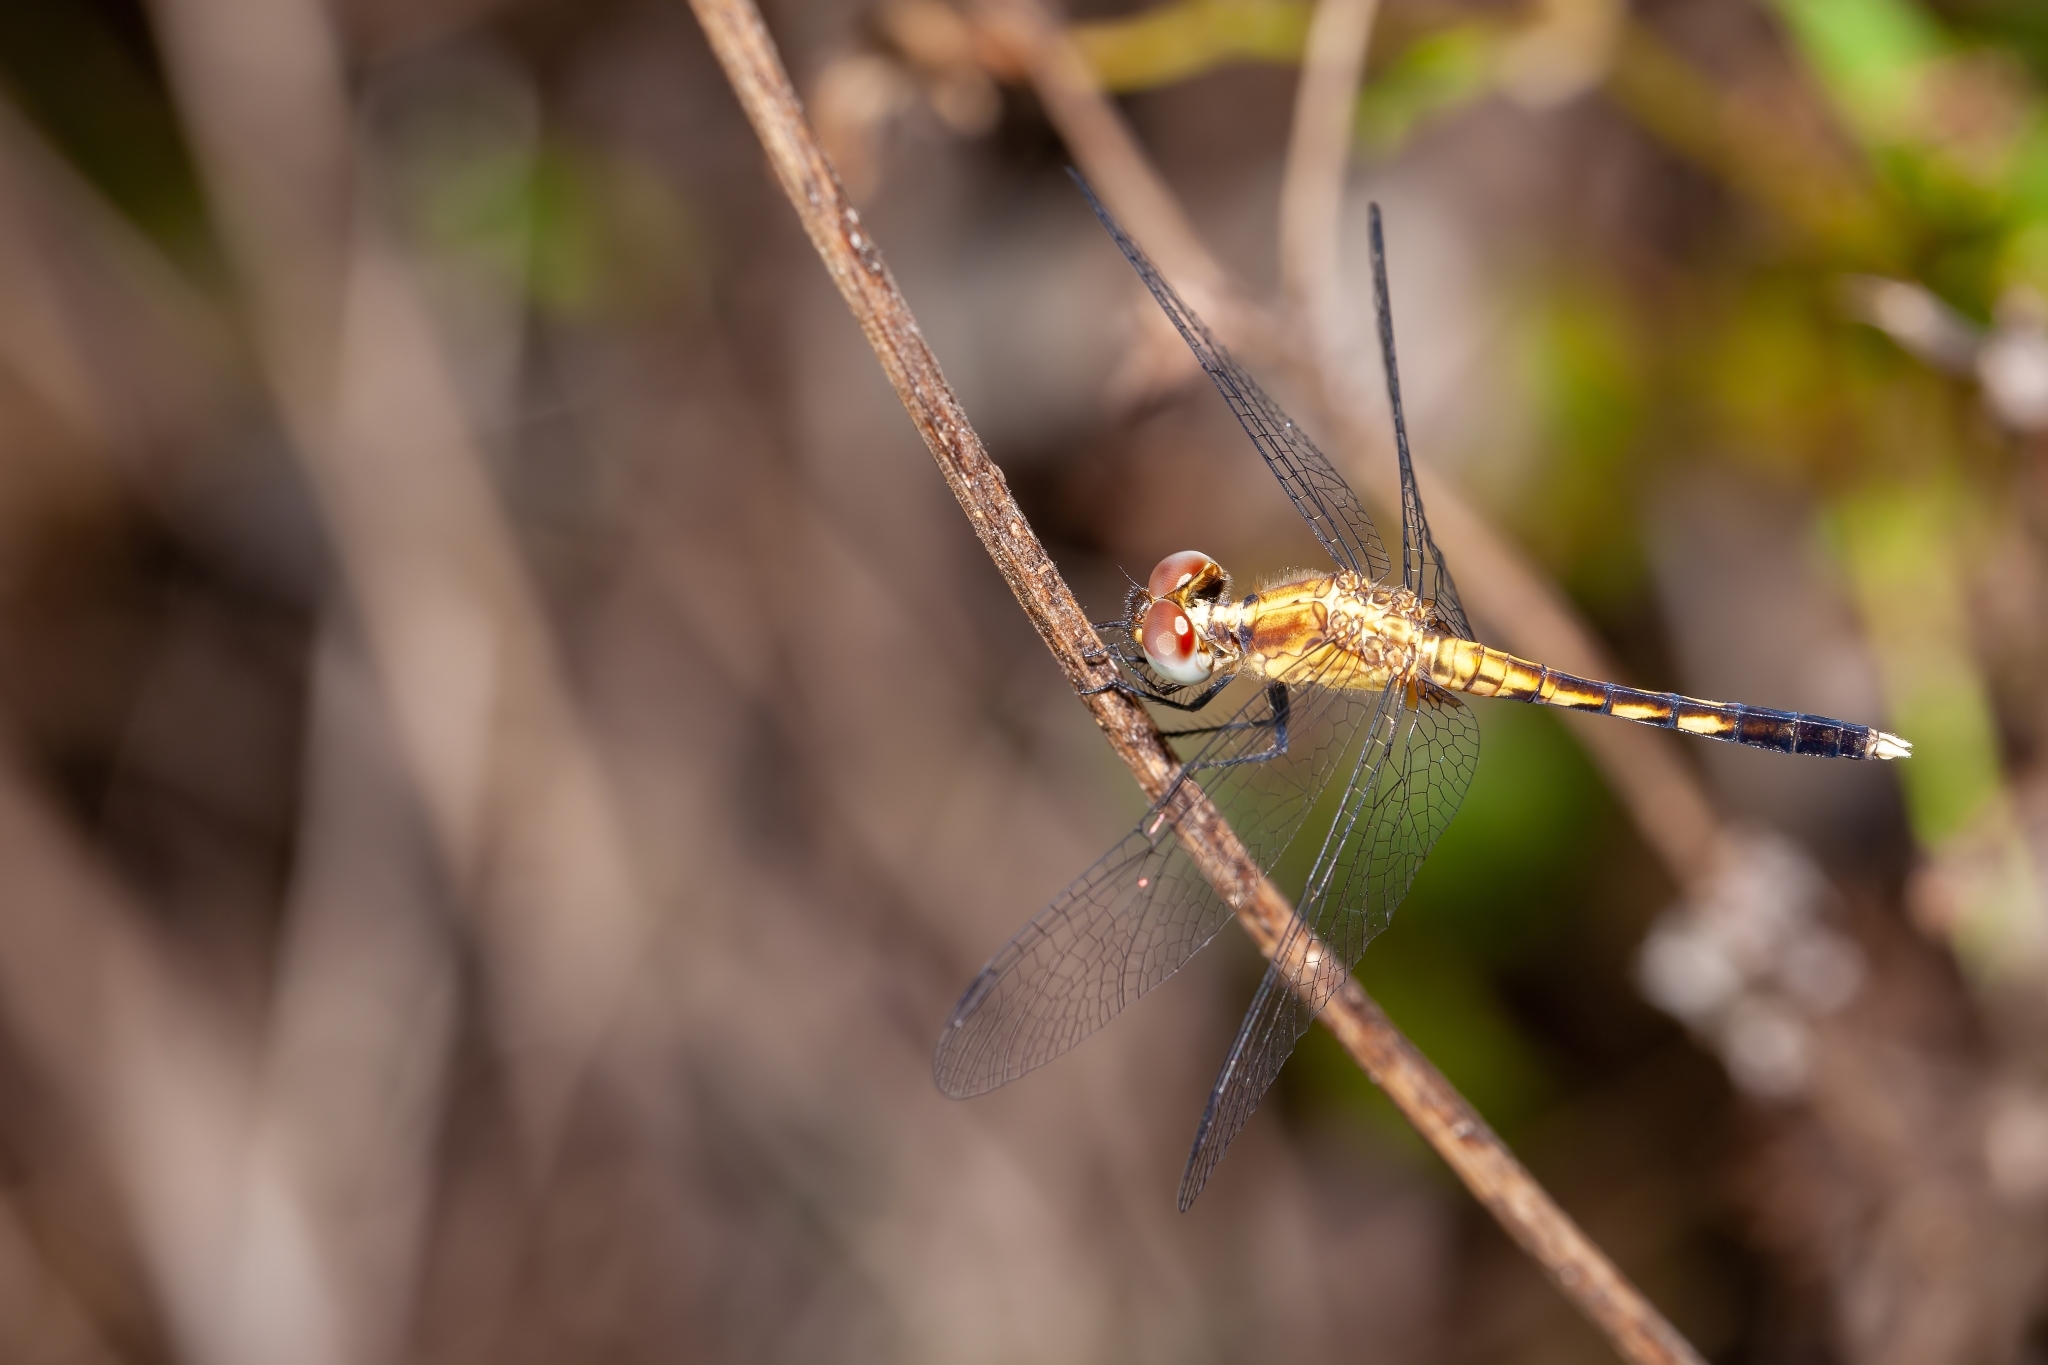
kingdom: Animalia
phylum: Arthropoda
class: Insecta
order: Odonata
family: Libellulidae
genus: Erythrodiplax
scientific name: Erythrodiplax minuscula
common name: Little blue dragonlet
